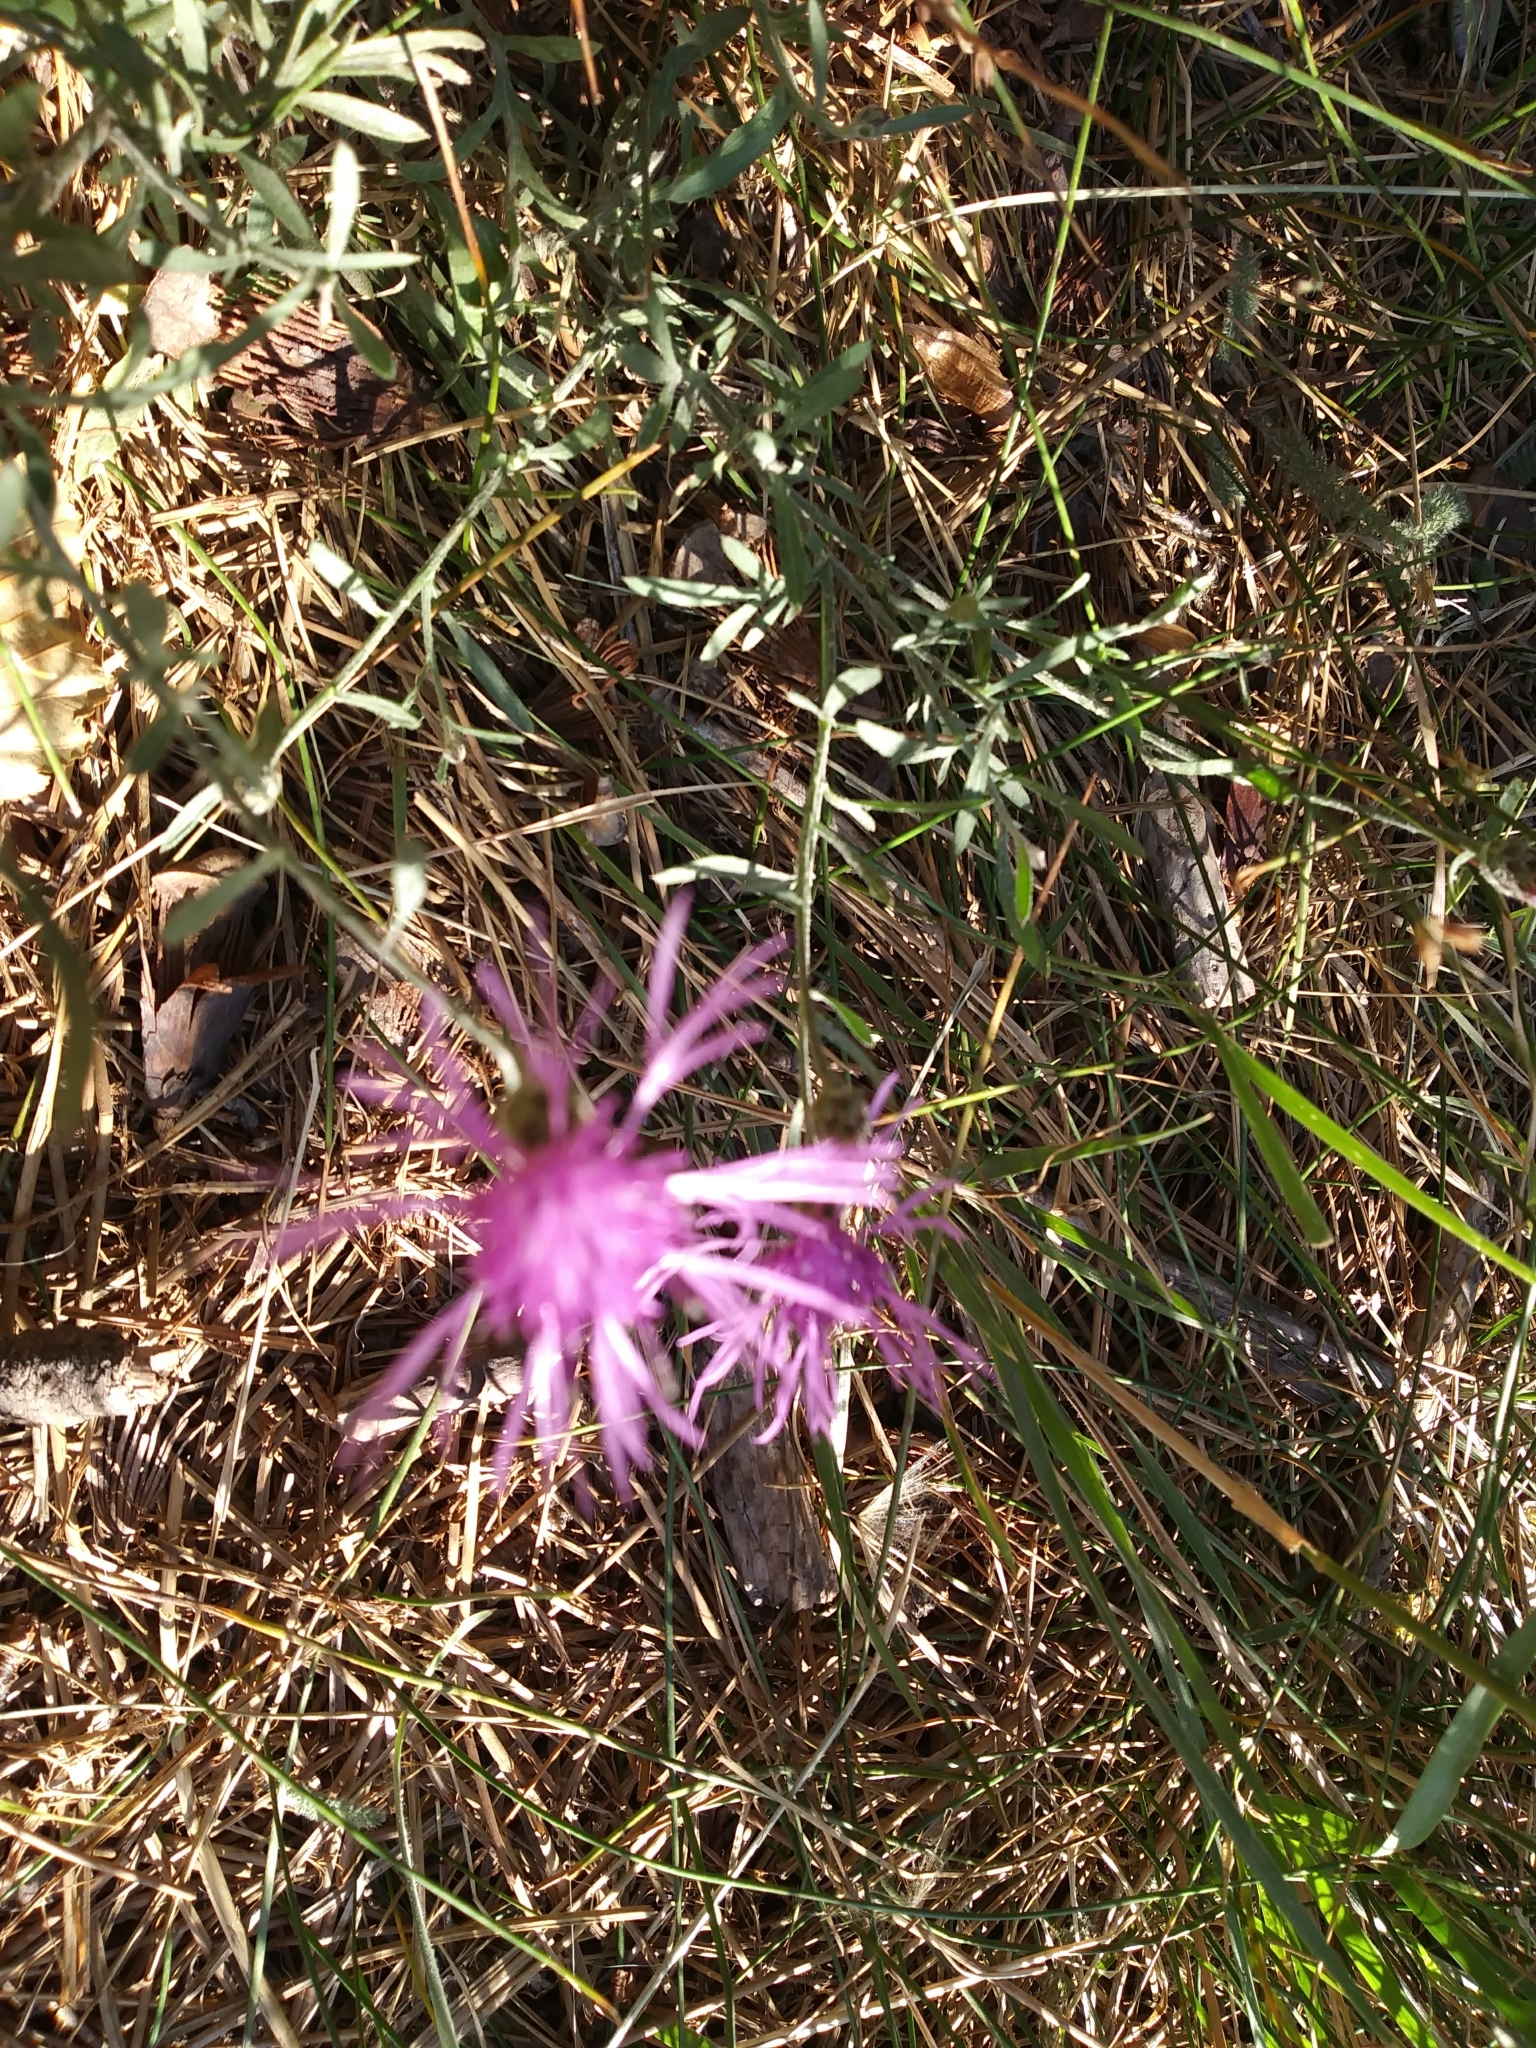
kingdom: Plantae
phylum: Tracheophyta
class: Magnoliopsida
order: Asterales
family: Asteraceae
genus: Centaurea
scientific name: Centaurea stoebe
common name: Spotted knapweed
